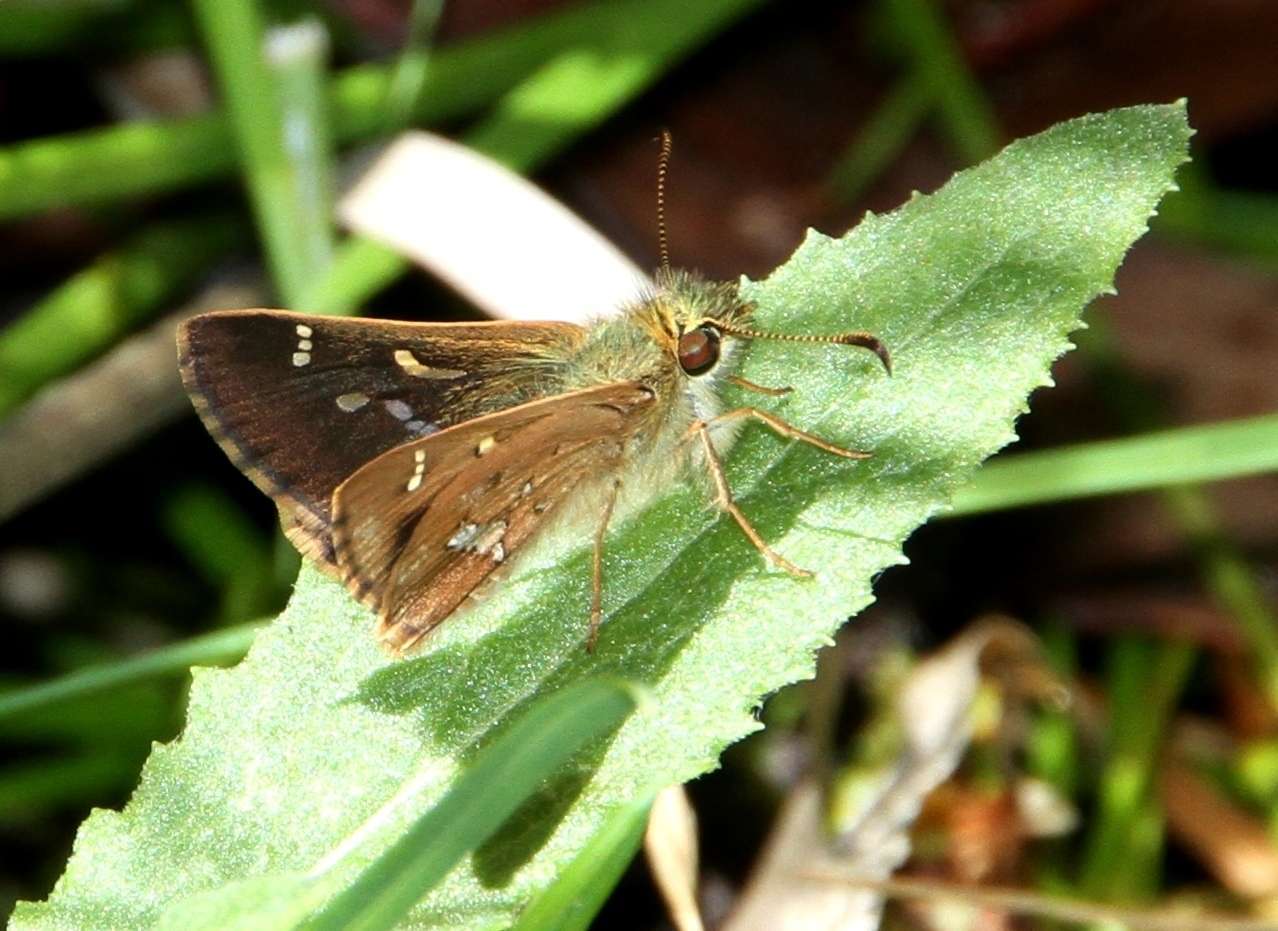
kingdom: Animalia
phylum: Arthropoda
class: Insecta
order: Lepidoptera
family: Hesperiidae
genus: Dispar
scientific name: Dispar compacta
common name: Barred skipper
